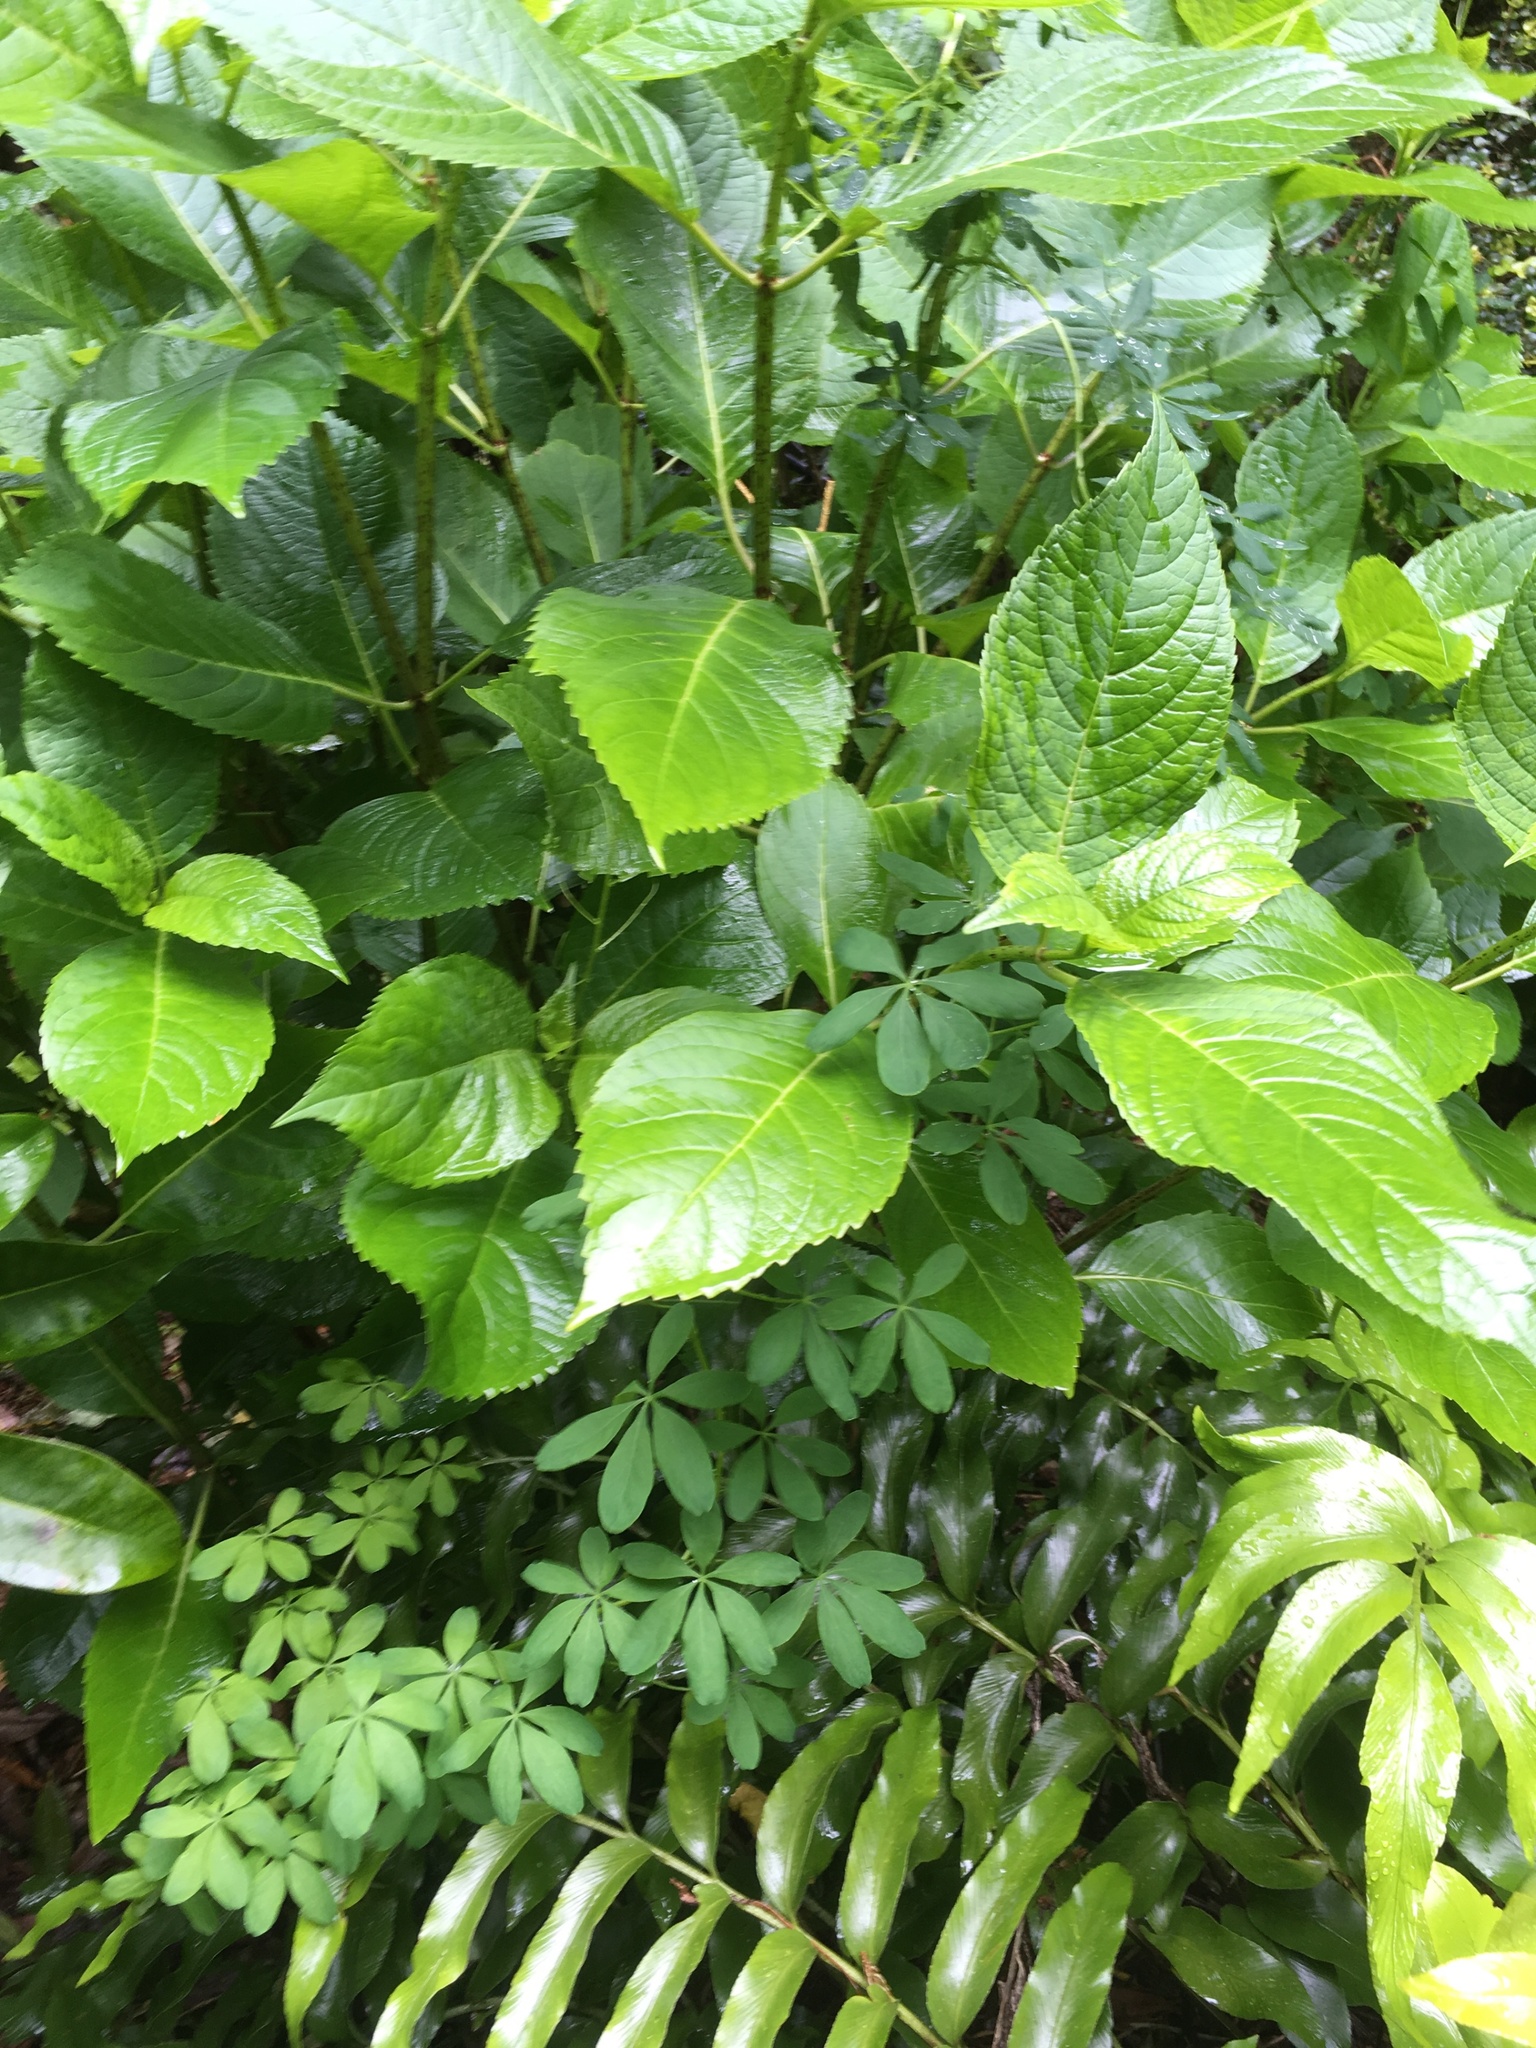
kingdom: Plantae
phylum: Tracheophyta
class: Magnoliopsida
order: Brassicales
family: Tropaeolaceae
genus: Tropaeolum
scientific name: Tropaeolum speciosum
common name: Flame nasturtium
